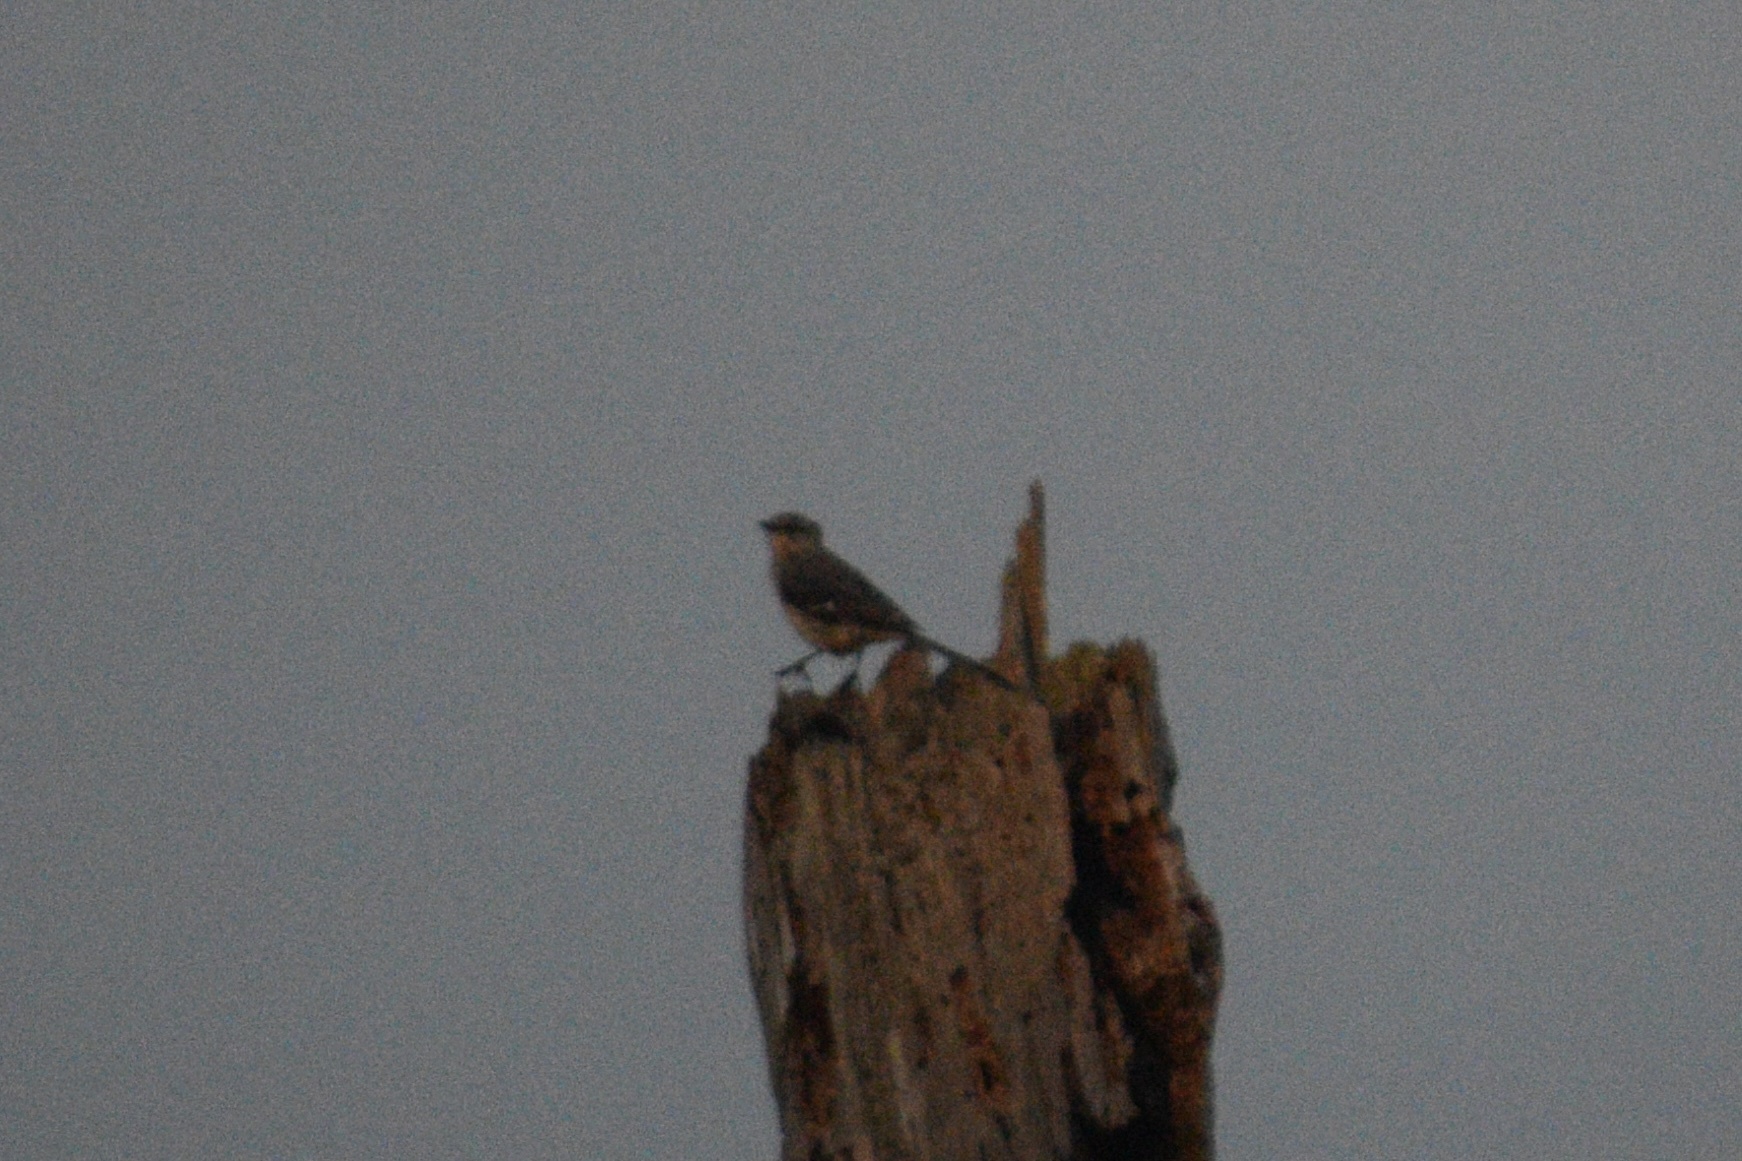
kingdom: Animalia
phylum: Chordata
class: Aves
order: Passeriformes
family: Mimidae
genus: Mimus
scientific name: Mimus polyglottos
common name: Northern mockingbird
